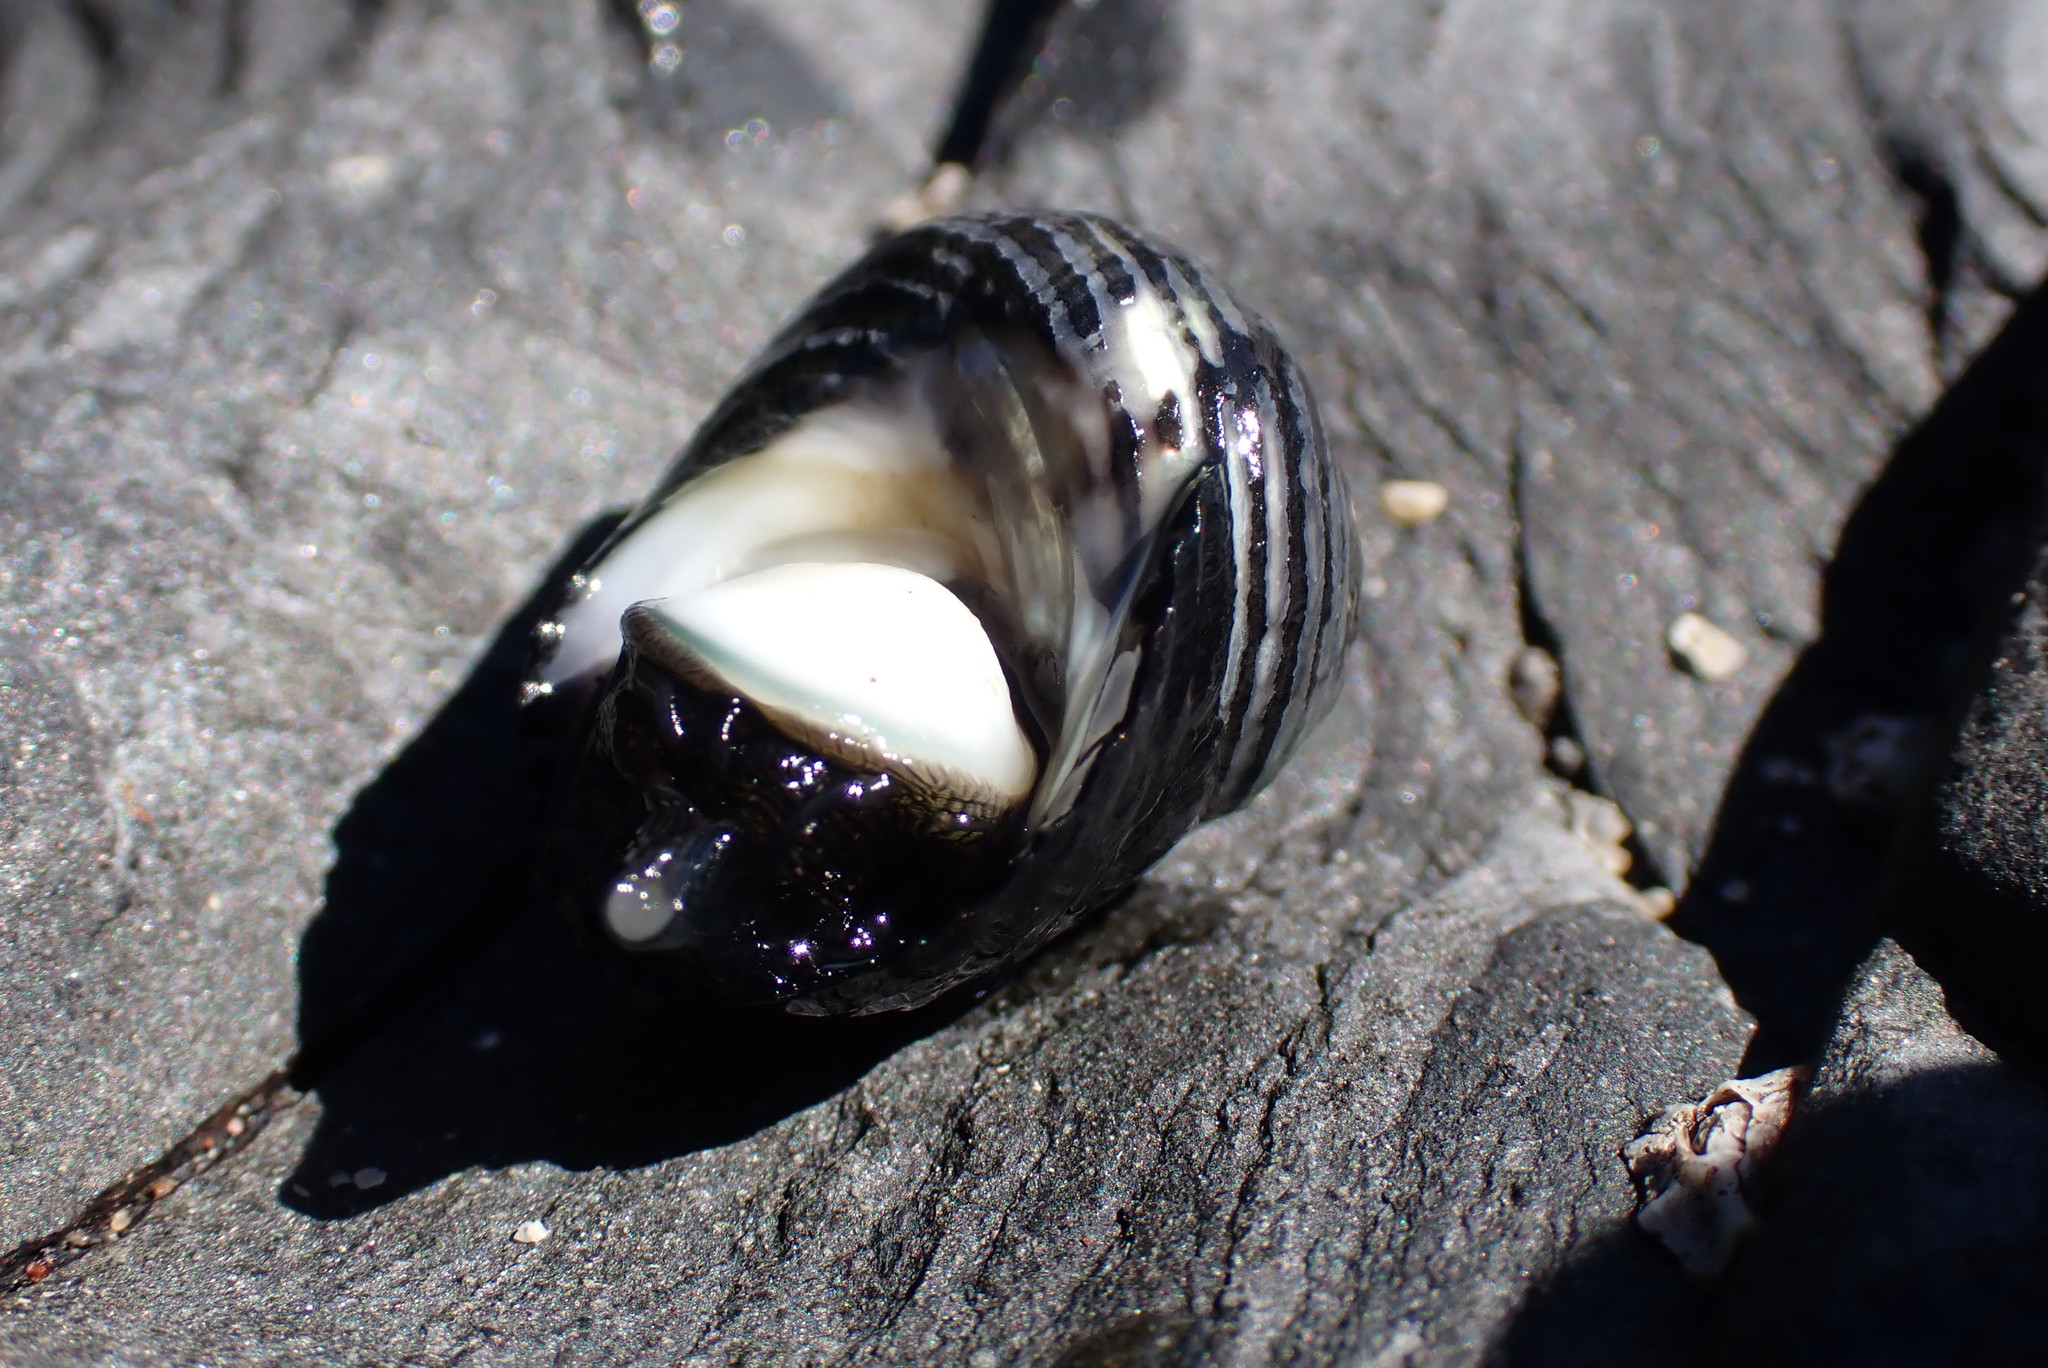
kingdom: Animalia
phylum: Mollusca
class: Gastropoda
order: Trochida
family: Turbinidae
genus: Prisogaster
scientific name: Prisogaster niger
